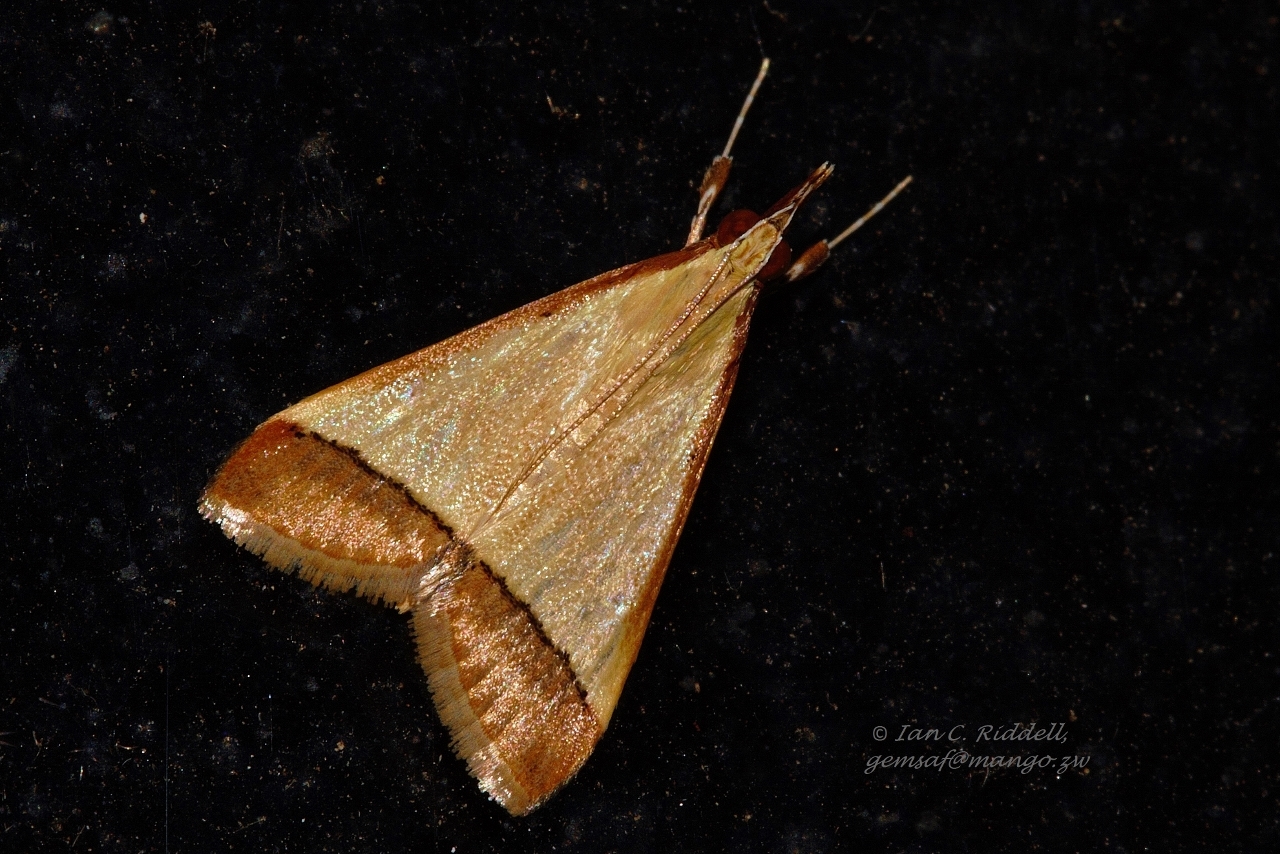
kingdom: Animalia
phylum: Arthropoda
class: Insecta
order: Lepidoptera
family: Crambidae
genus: Autocharis
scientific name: Autocharis fessalis
